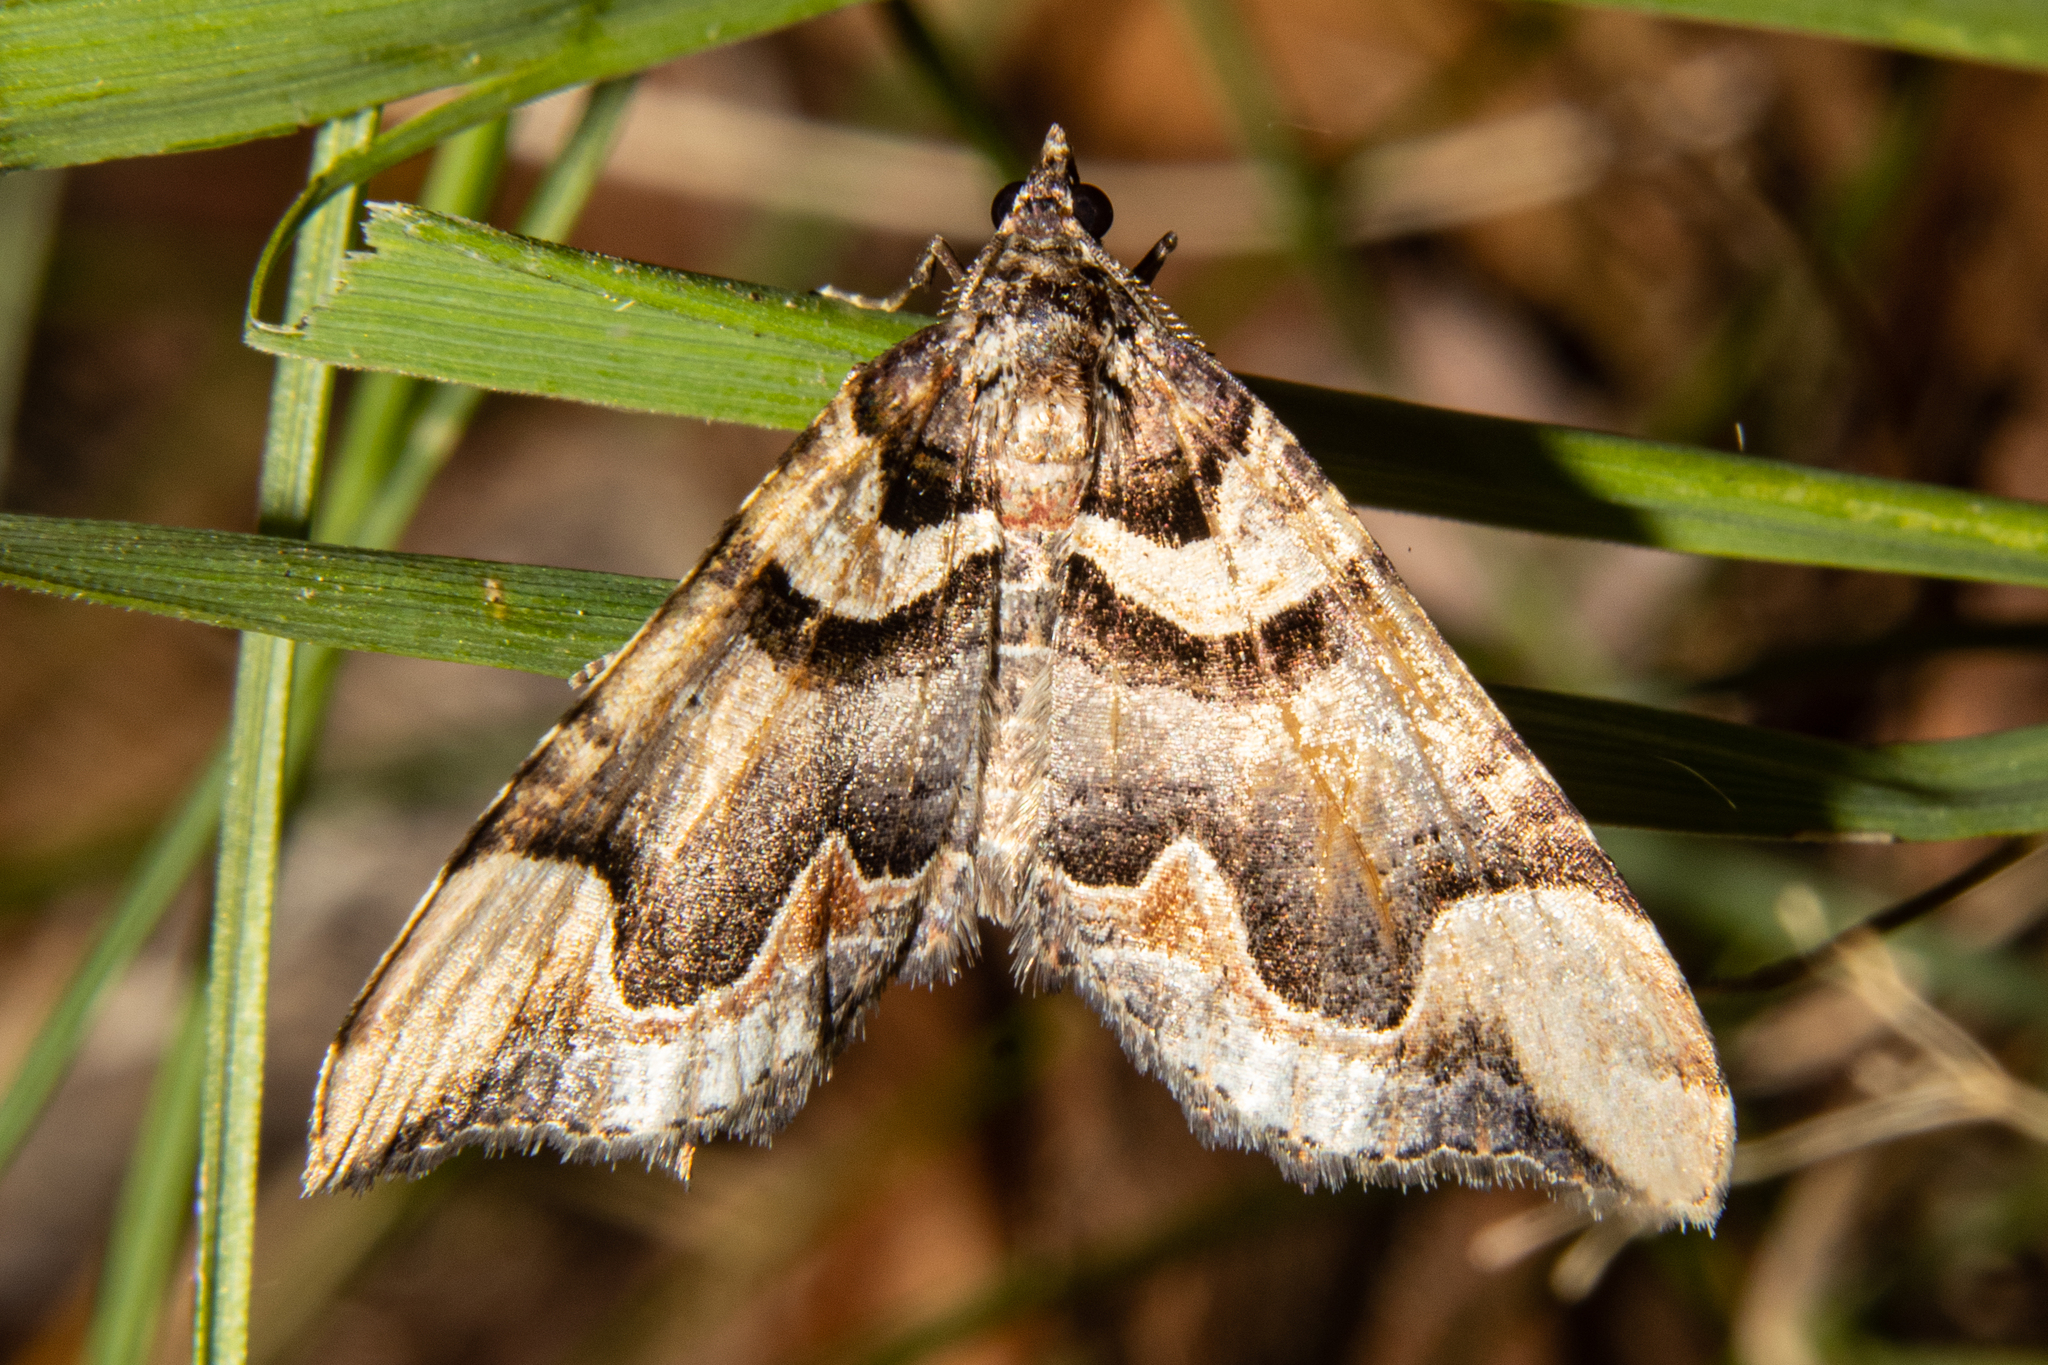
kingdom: Animalia
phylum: Arthropoda
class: Insecta
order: Lepidoptera
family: Geometridae
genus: Asaphodes
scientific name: Asaphodes chlamydota
